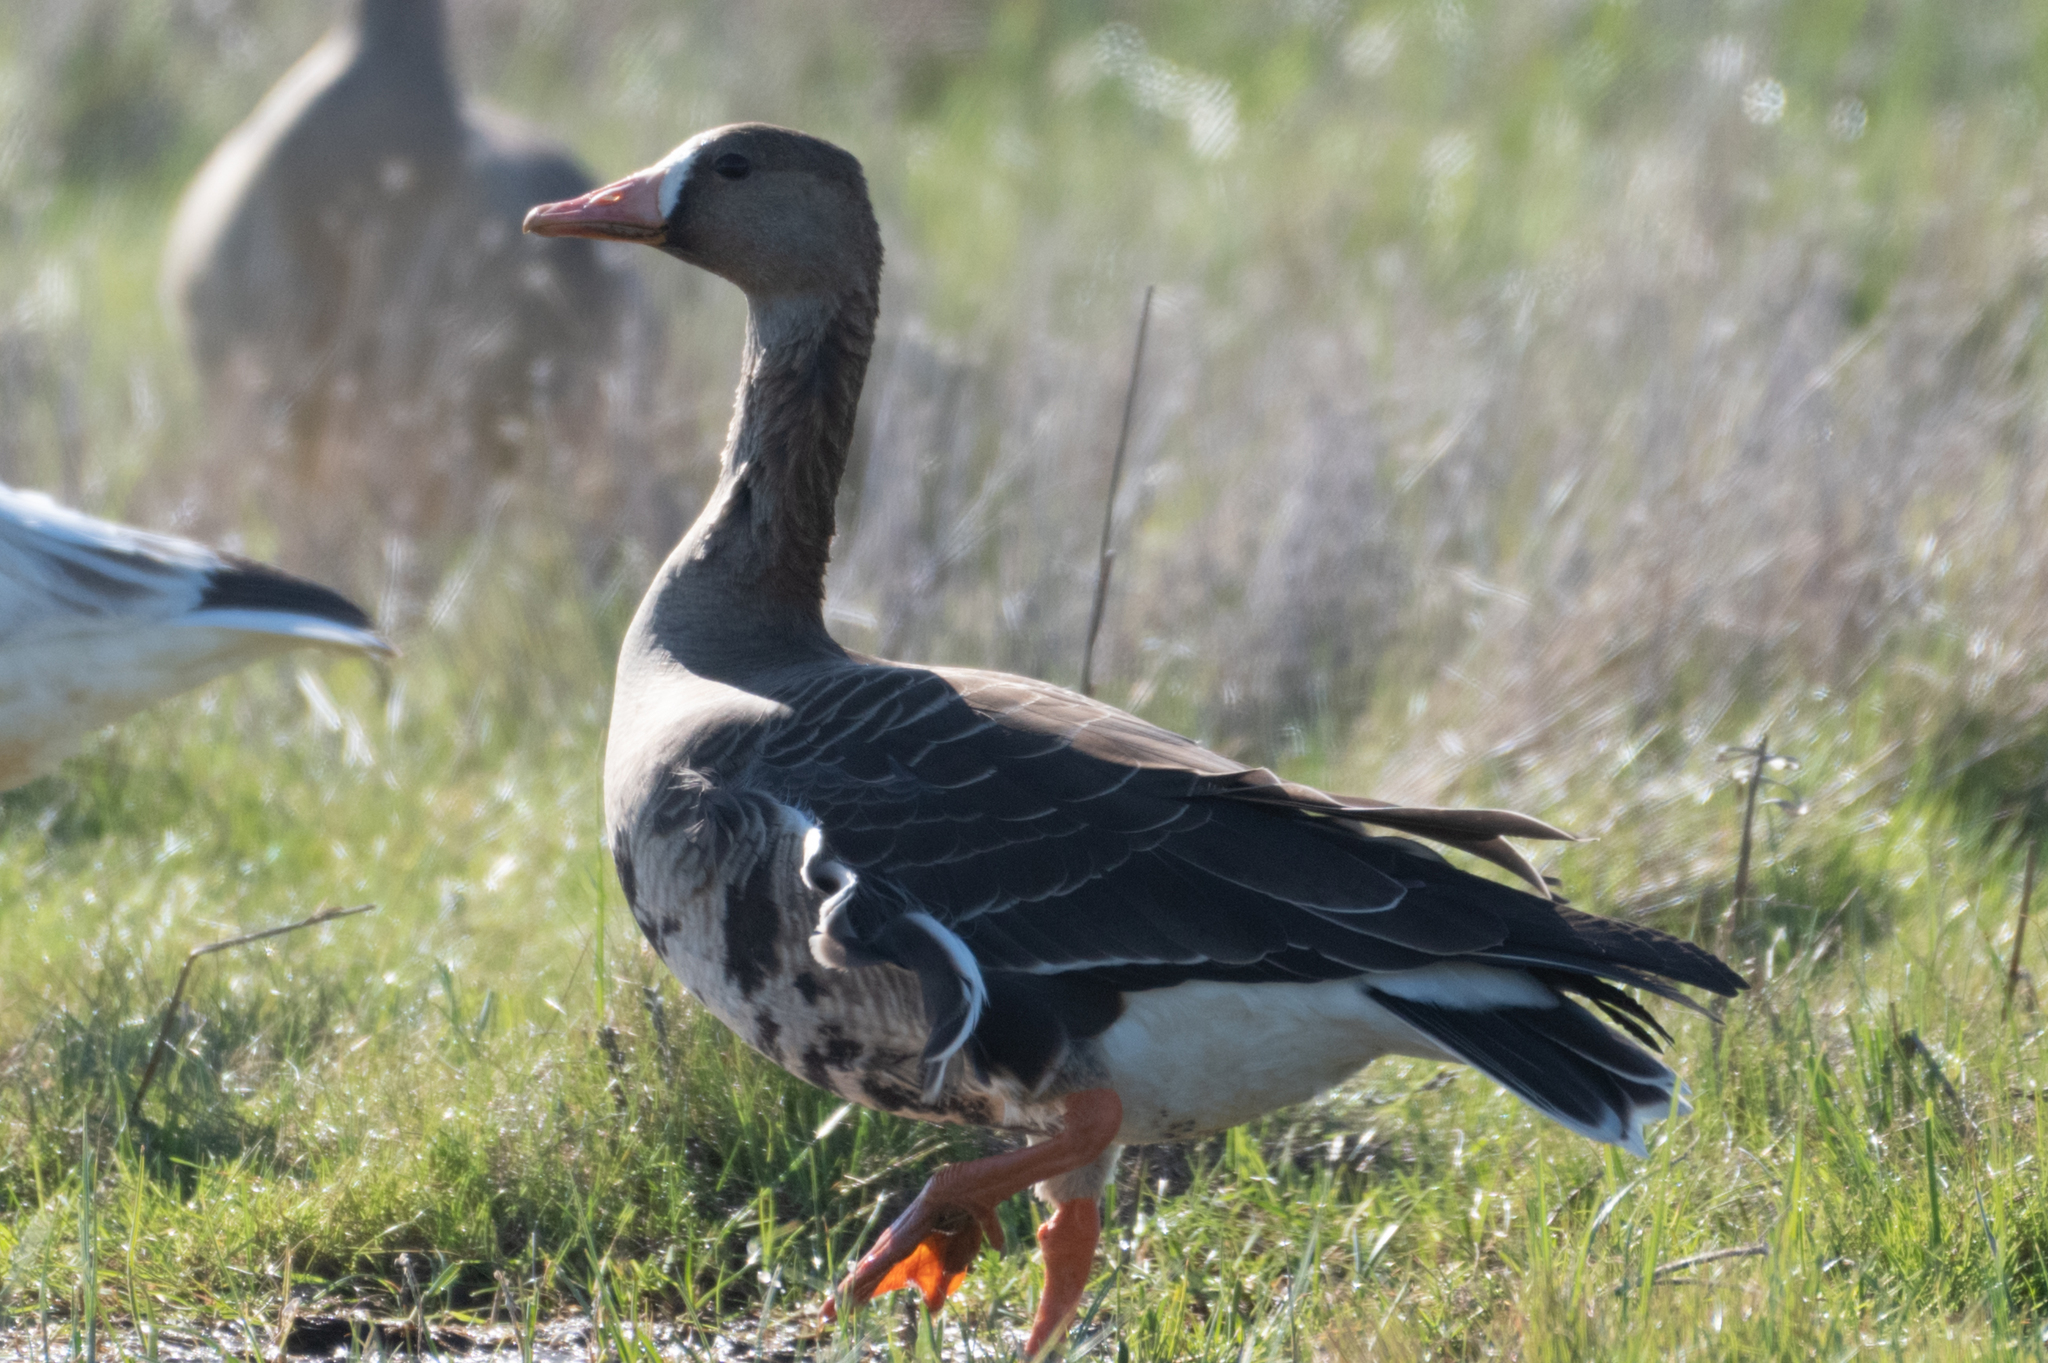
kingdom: Animalia
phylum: Chordata
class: Aves
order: Anseriformes
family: Anatidae
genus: Anser
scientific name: Anser albifrons
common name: Greater white-fronted goose
